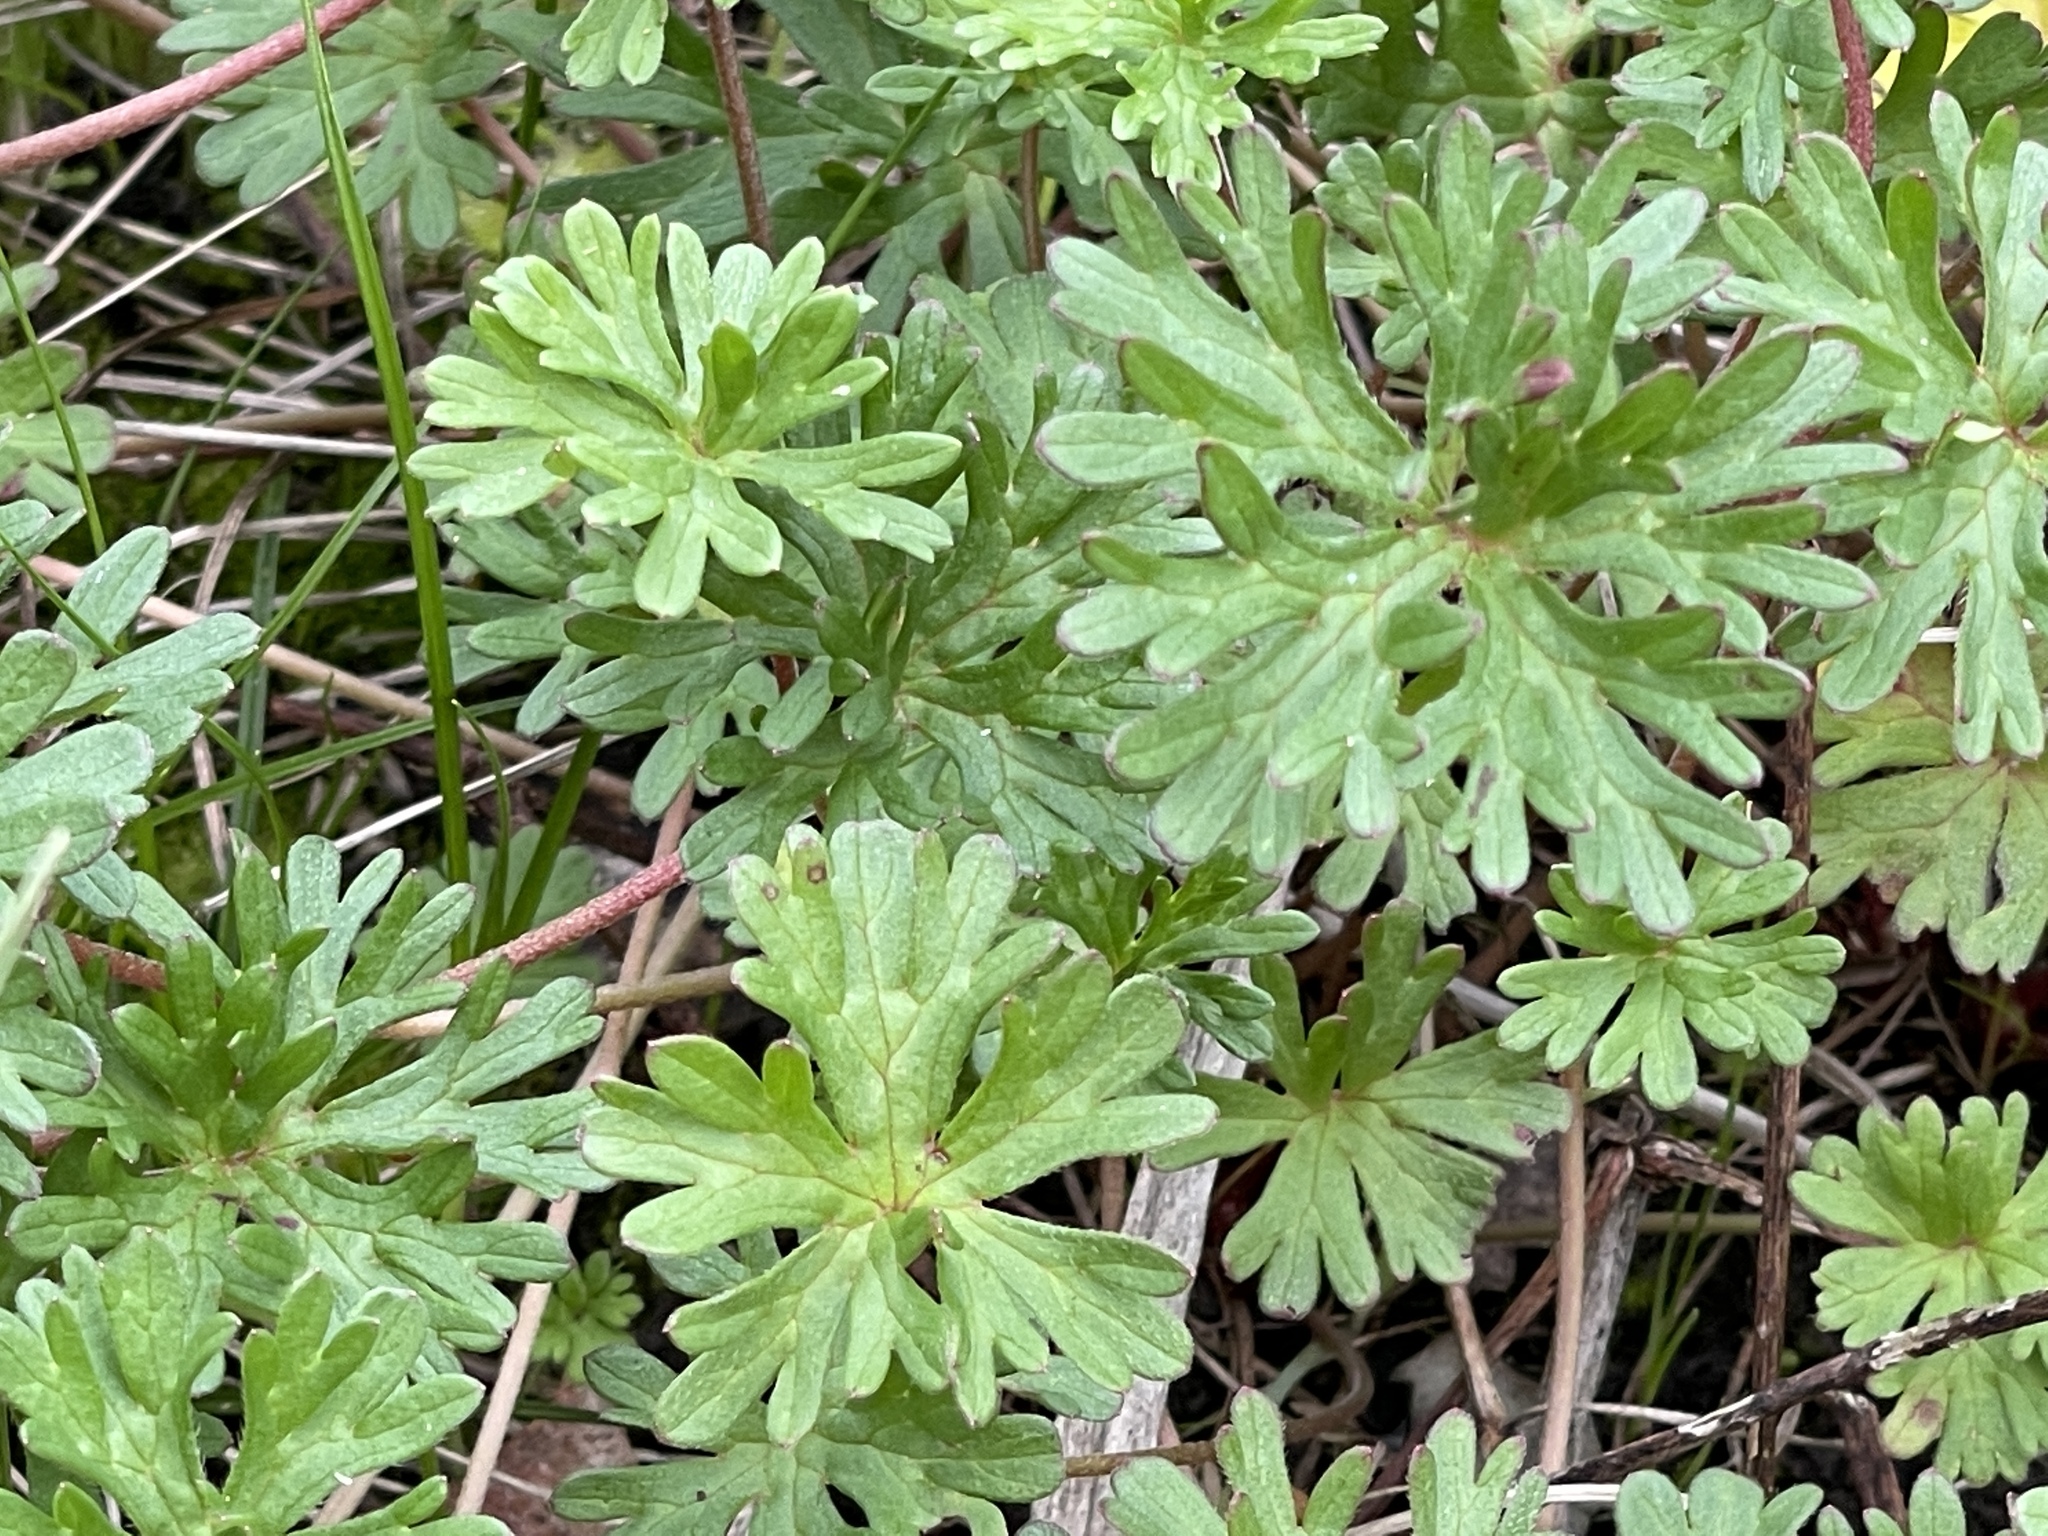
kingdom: Plantae
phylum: Tracheophyta
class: Magnoliopsida
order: Geraniales
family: Geraniaceae
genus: Geranium
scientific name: Geranium retrorsum
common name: New zealand geranium
